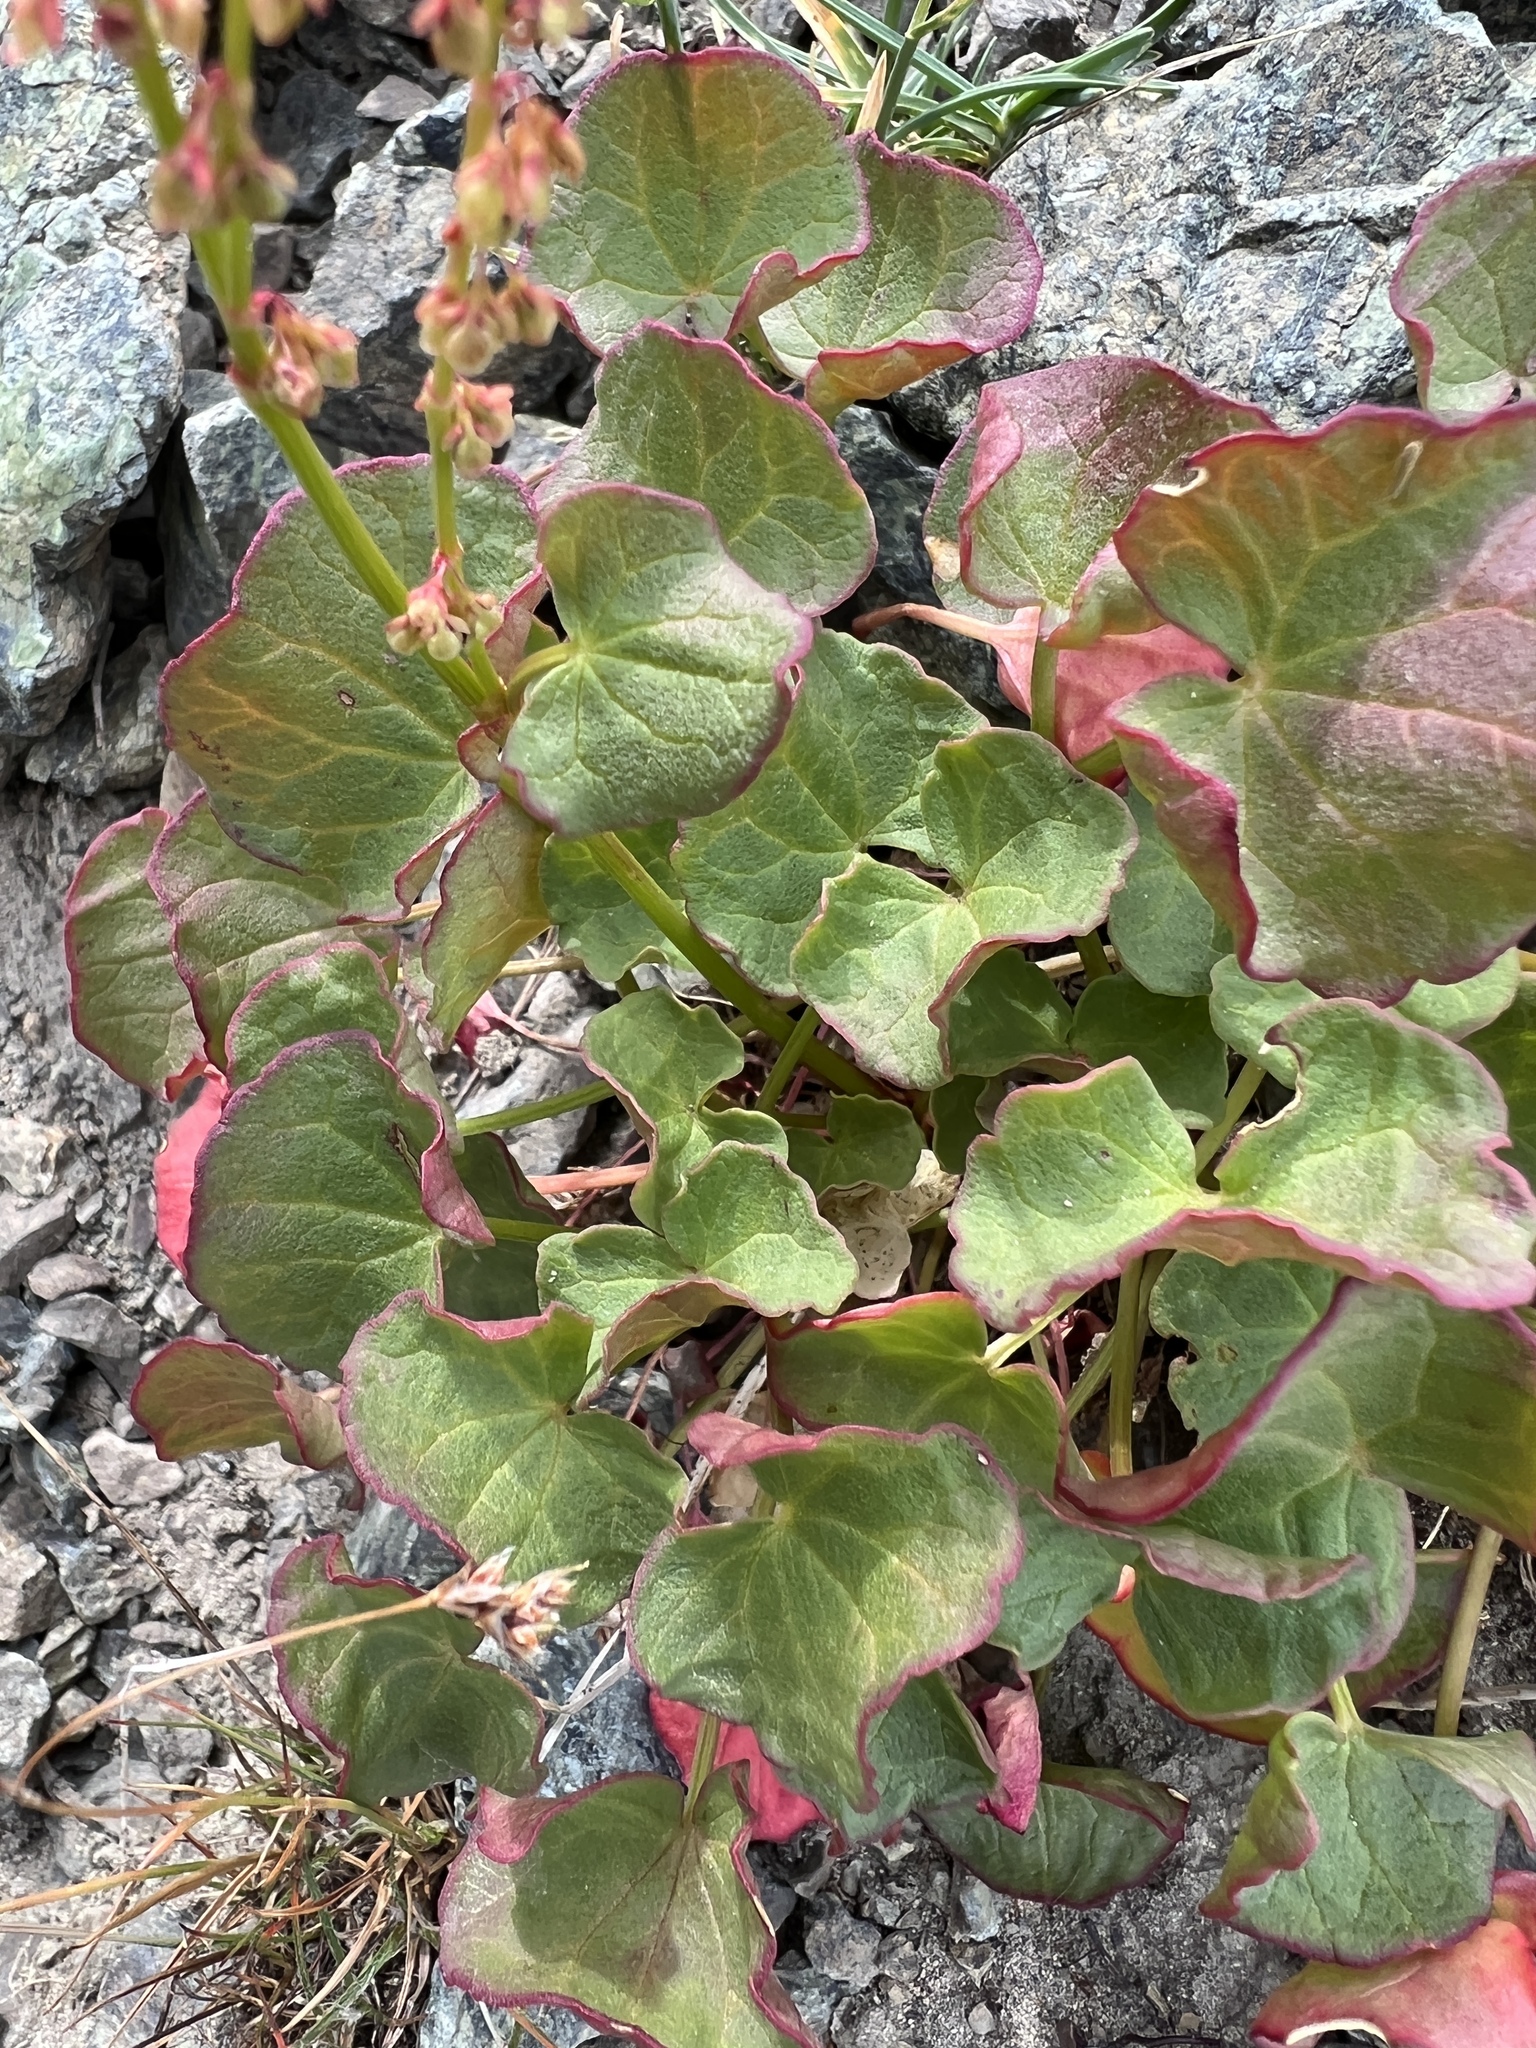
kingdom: Plantae
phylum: Tracheophyta
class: Magnoliopsida
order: Caryophyllales
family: Polygonaceae
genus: Oxyria
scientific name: Oxyria digyna
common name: Alpine mountain-sorrel
